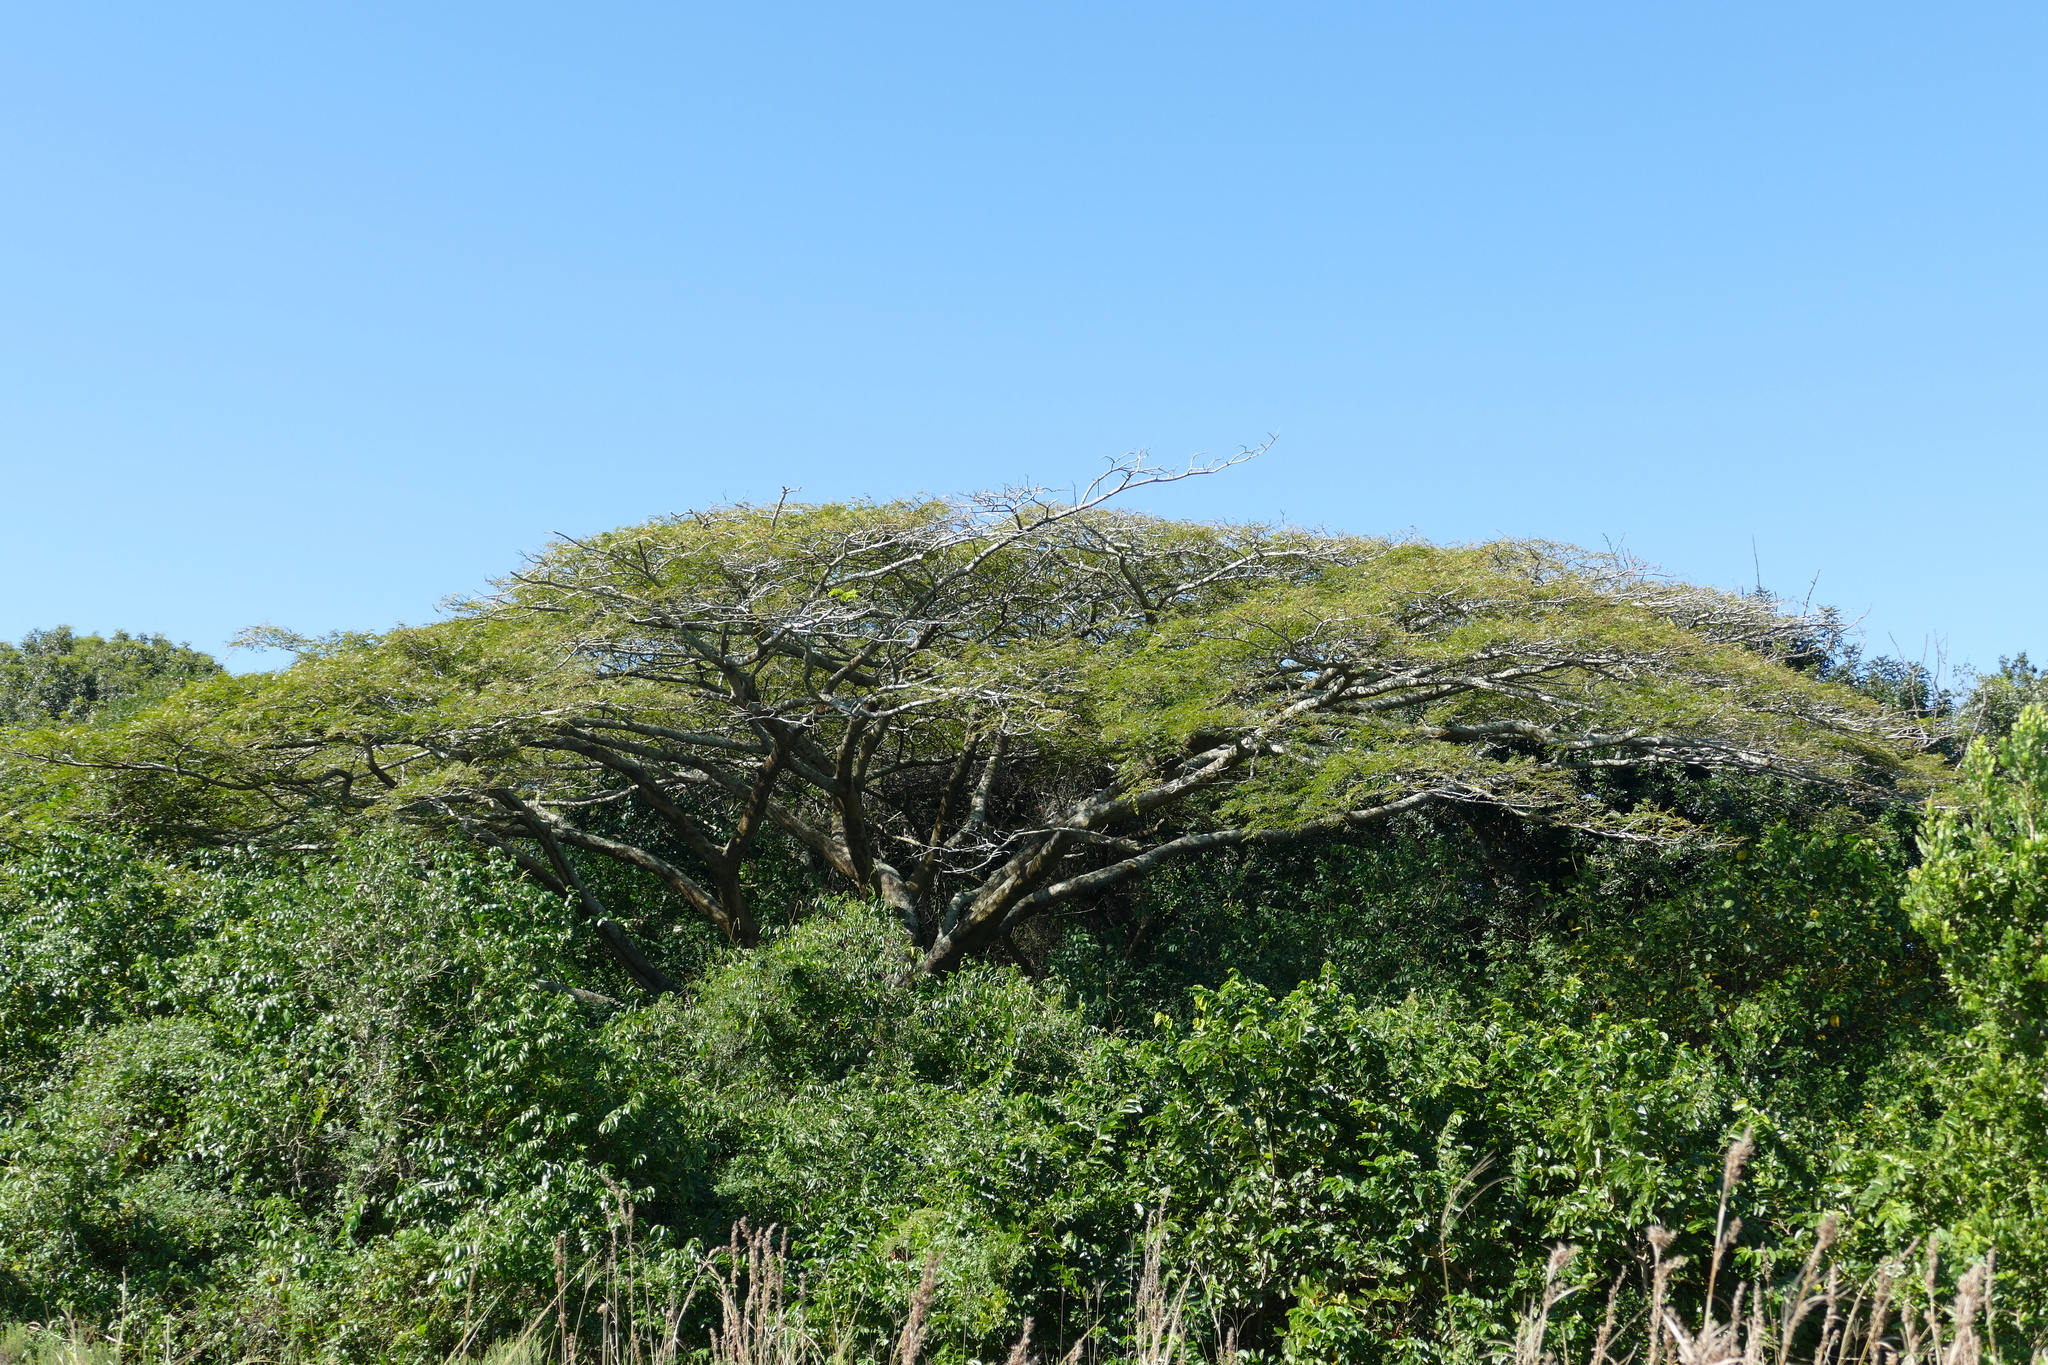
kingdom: Plantae
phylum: Tracheophyta
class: Magnoliopsida
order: Fabales
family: Fabaceae
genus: Albizia
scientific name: Albizia adianthifolia
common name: West african albizia
